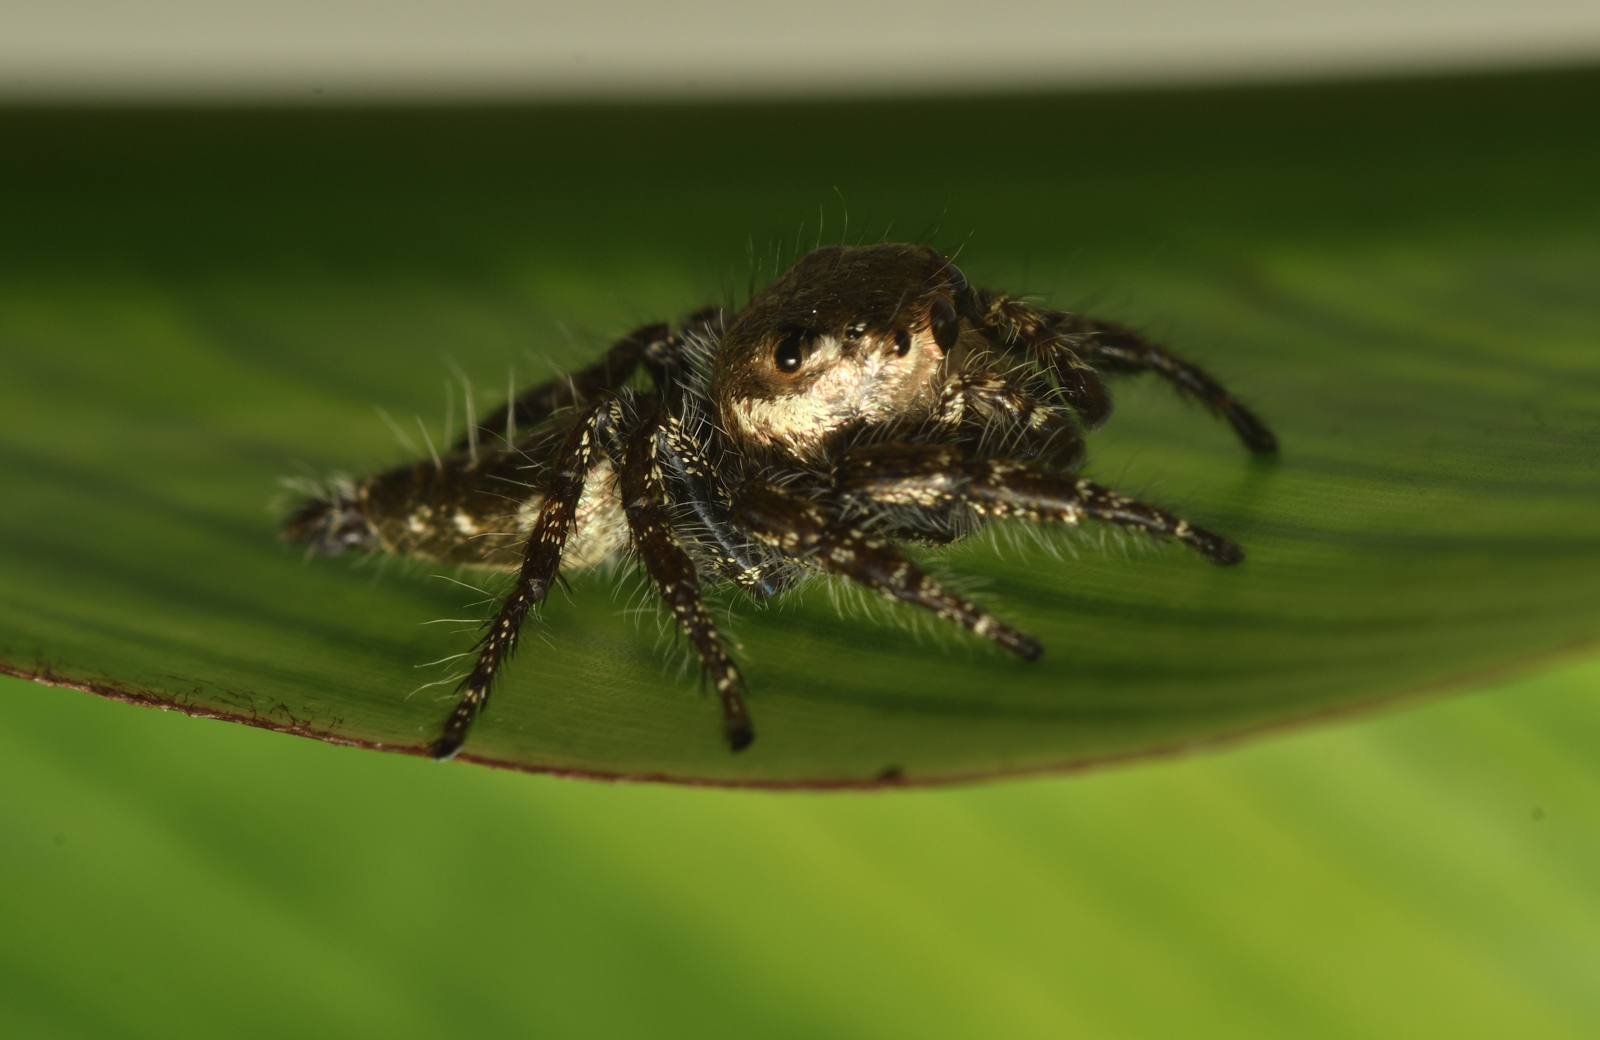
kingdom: Animalia
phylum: Arthropoda
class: Arachnida
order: Araneae
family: Salticidae
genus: Hyllus
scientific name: Hyllus semicupreus
